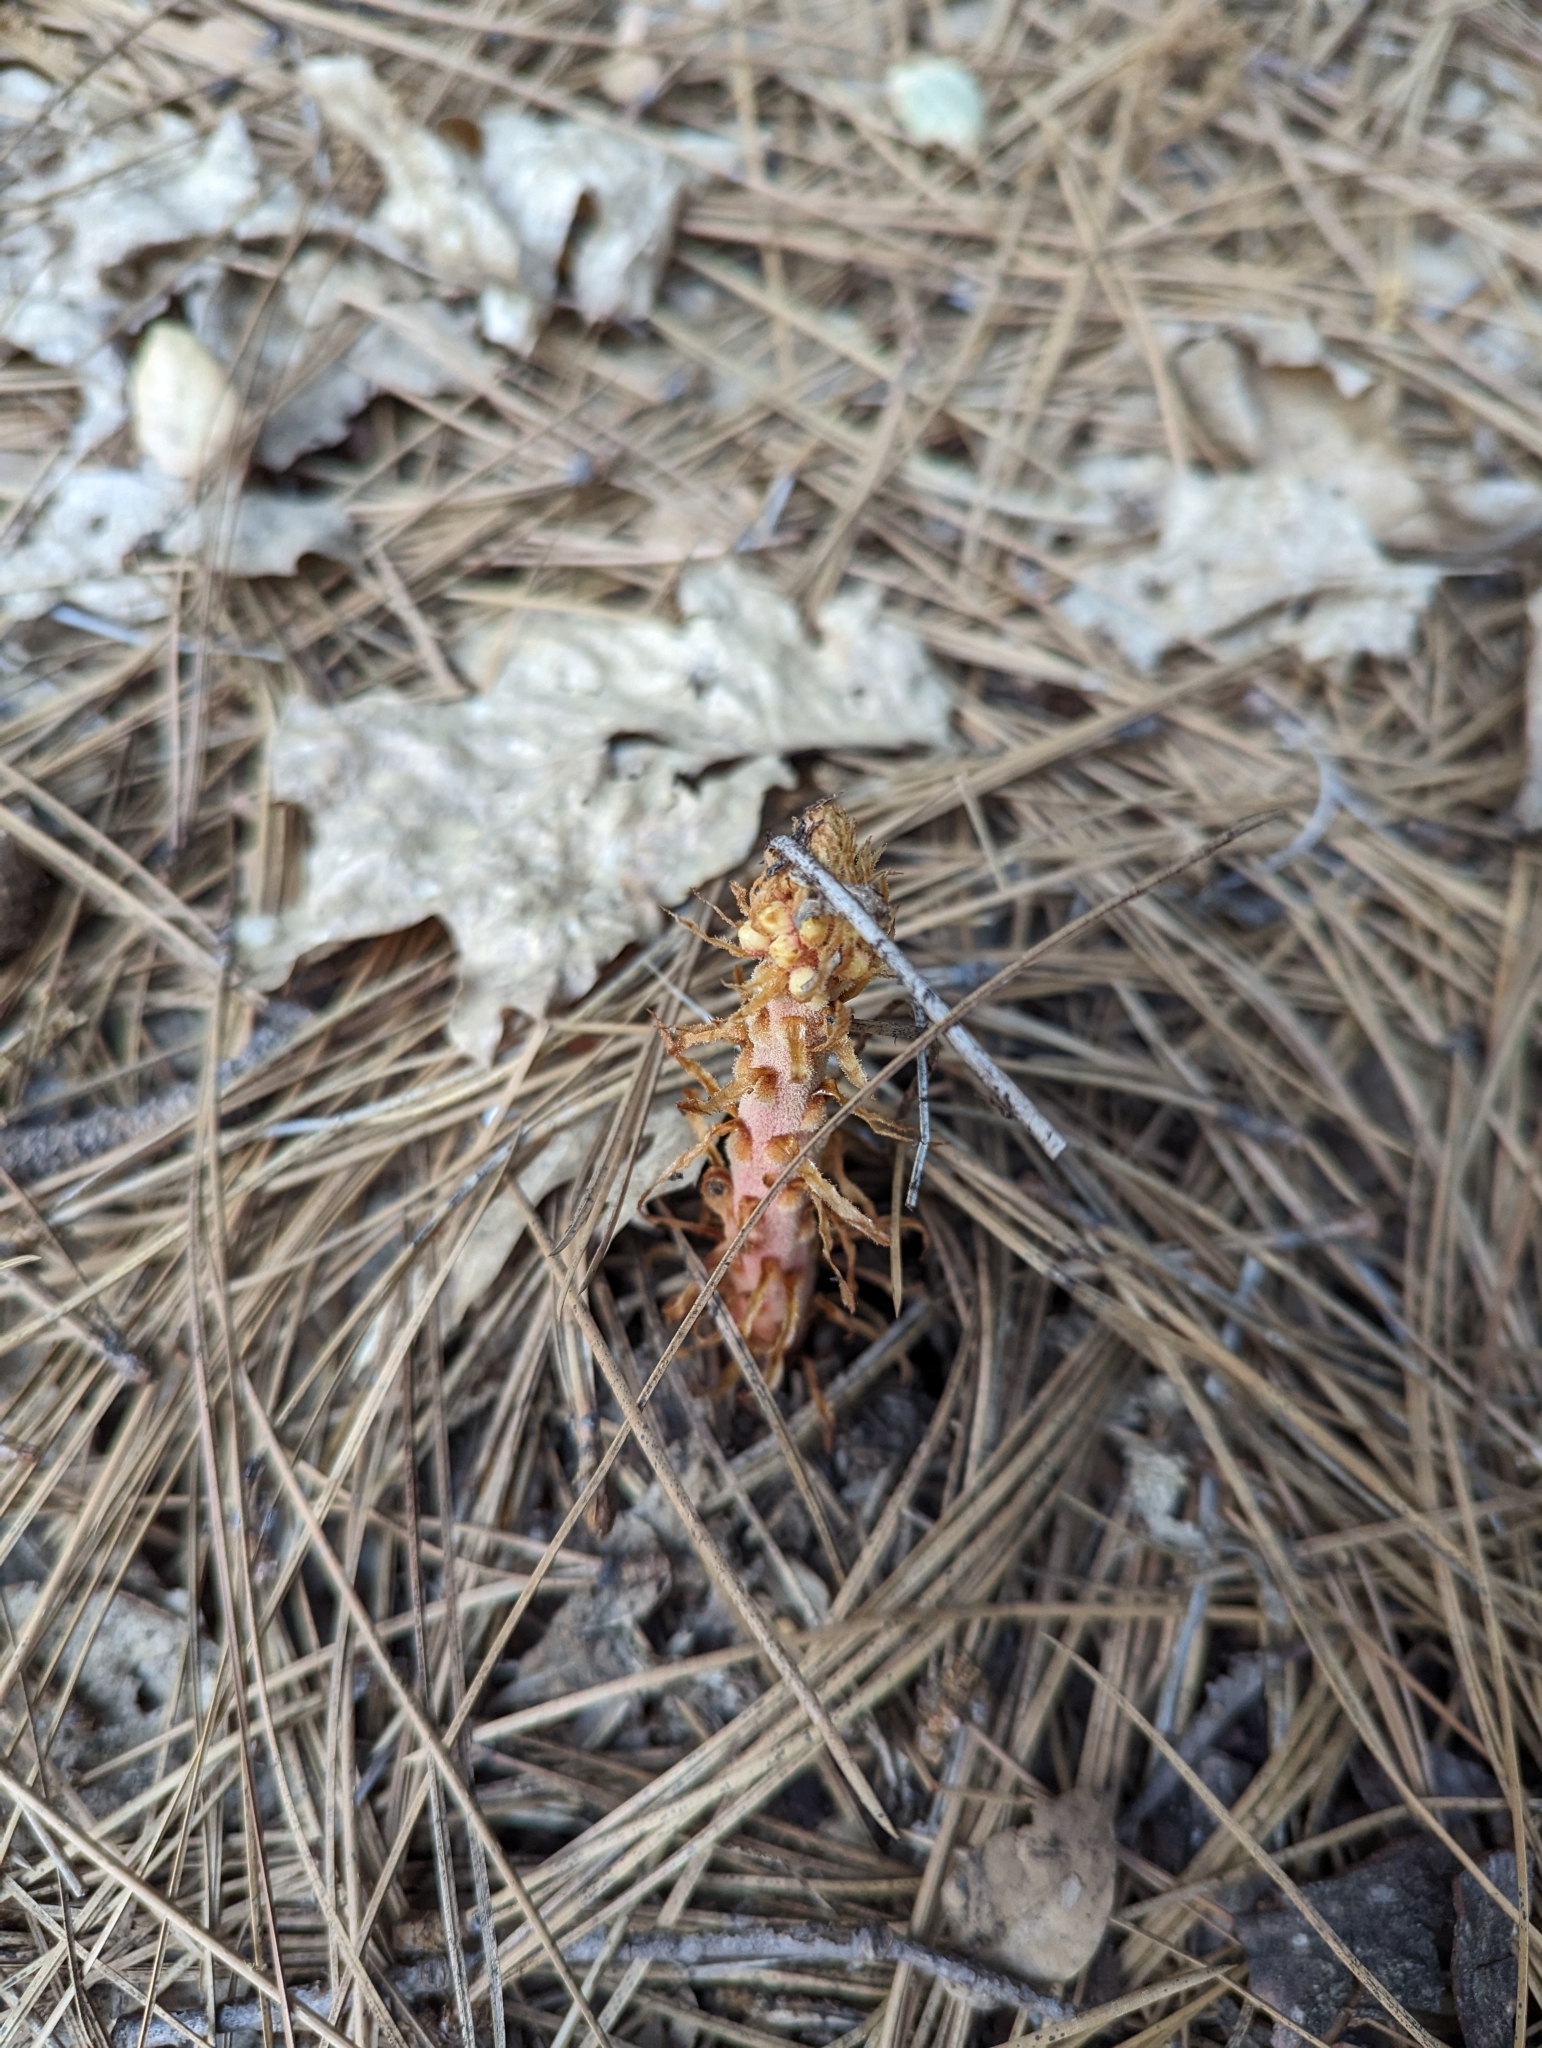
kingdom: Plantae
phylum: Tracheophyta
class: Magnoliopsida
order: Ericales
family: Ericaceae
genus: Pterospora
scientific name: Pterospora andromedea
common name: Giant bird's-nest
